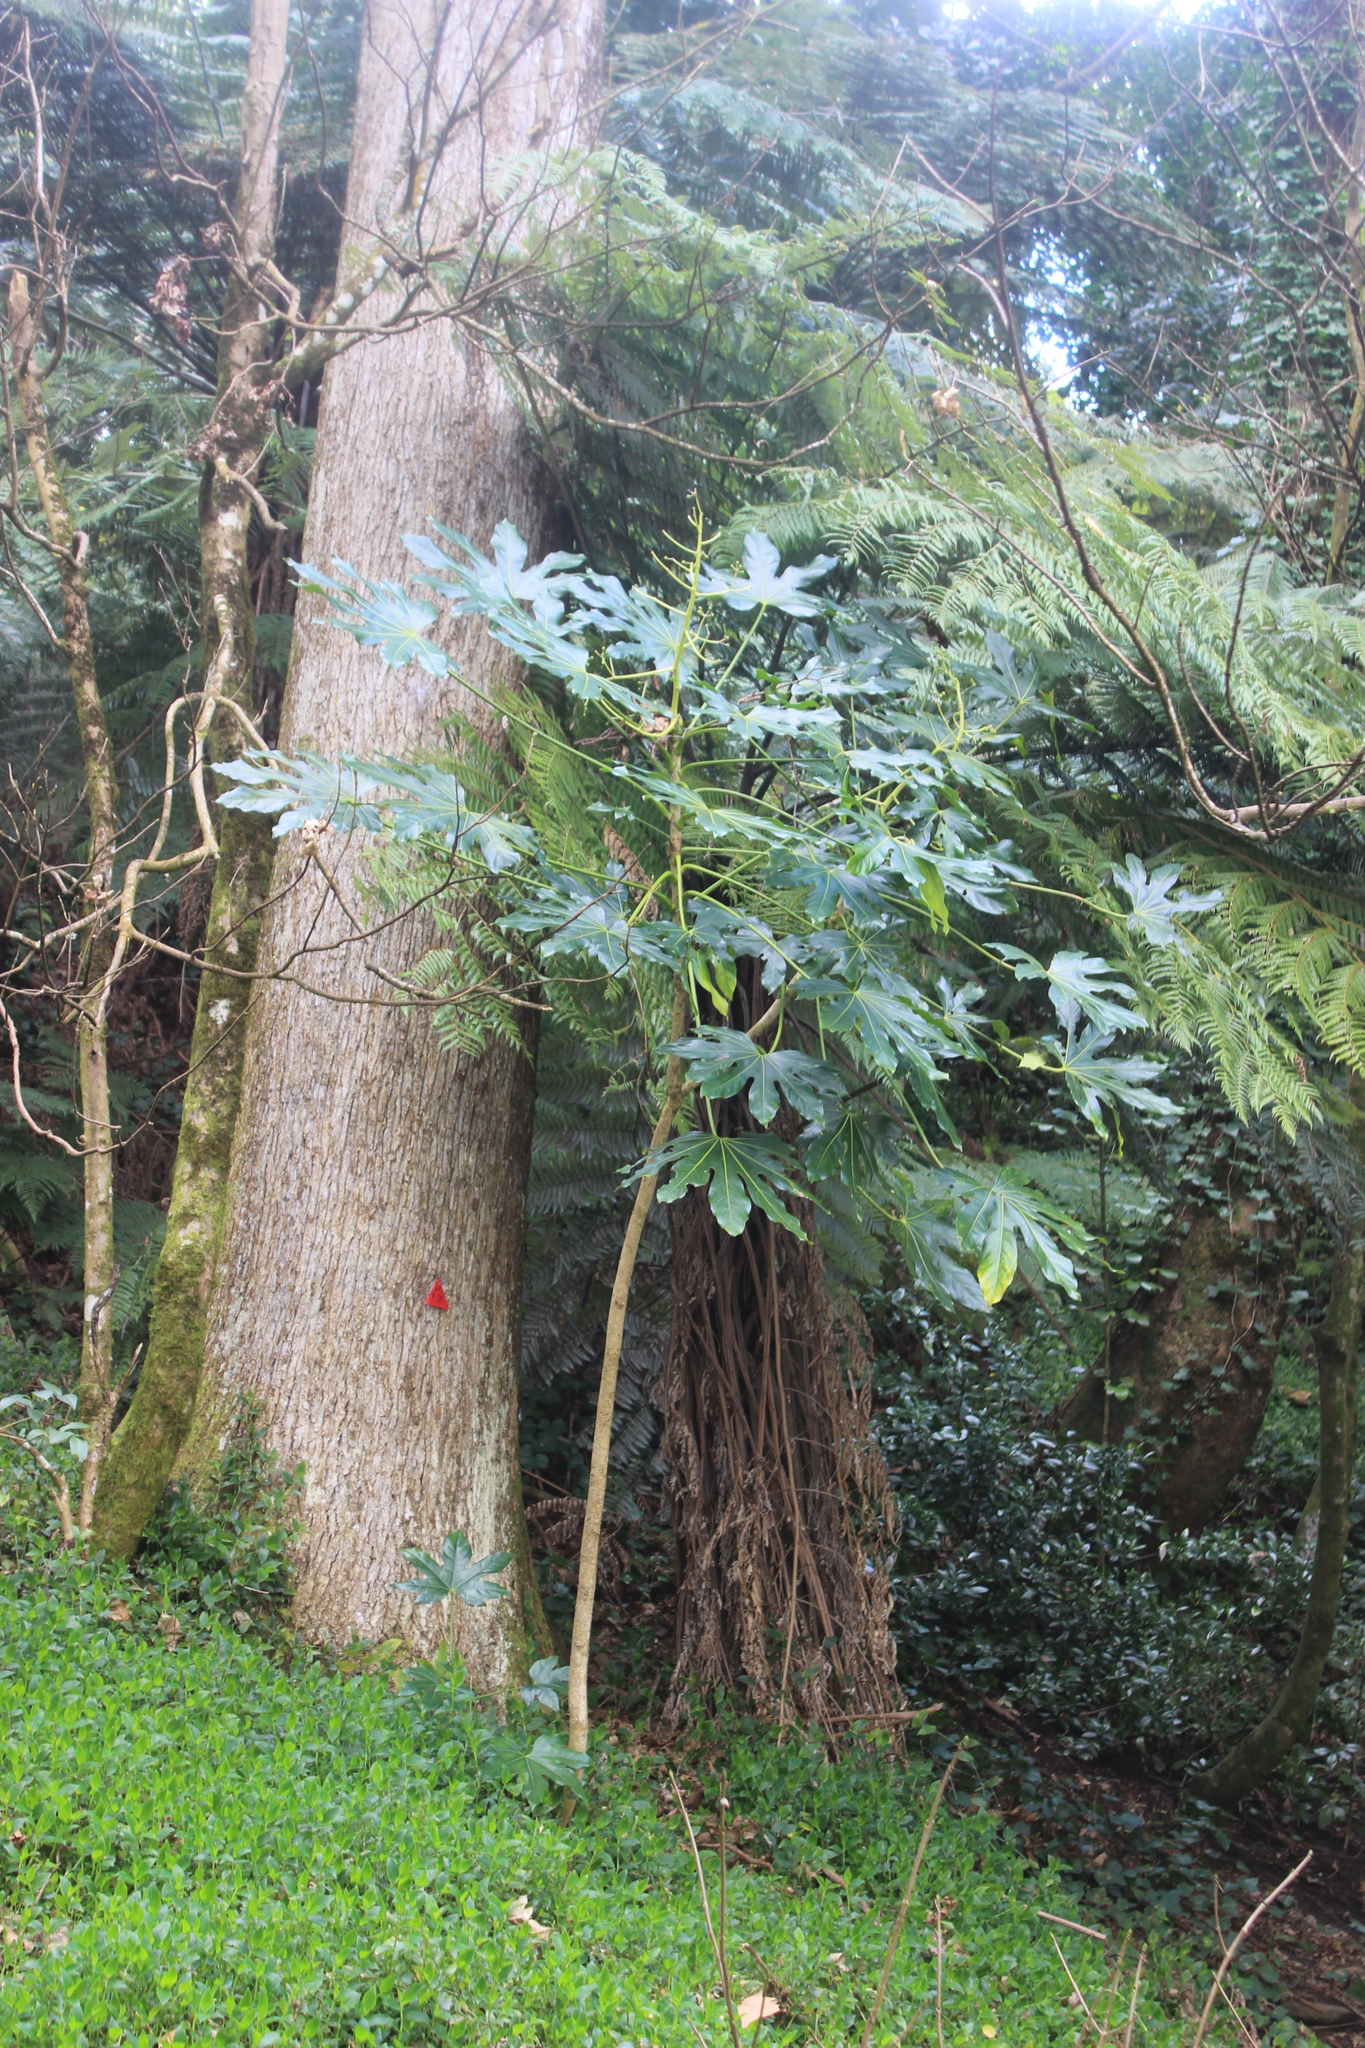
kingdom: Plantae
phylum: Tracheophyta
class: Magnoliopsida
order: Apiales
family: Araliaceae
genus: Fatsia
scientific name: Fatsia japonica
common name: Fatsia
